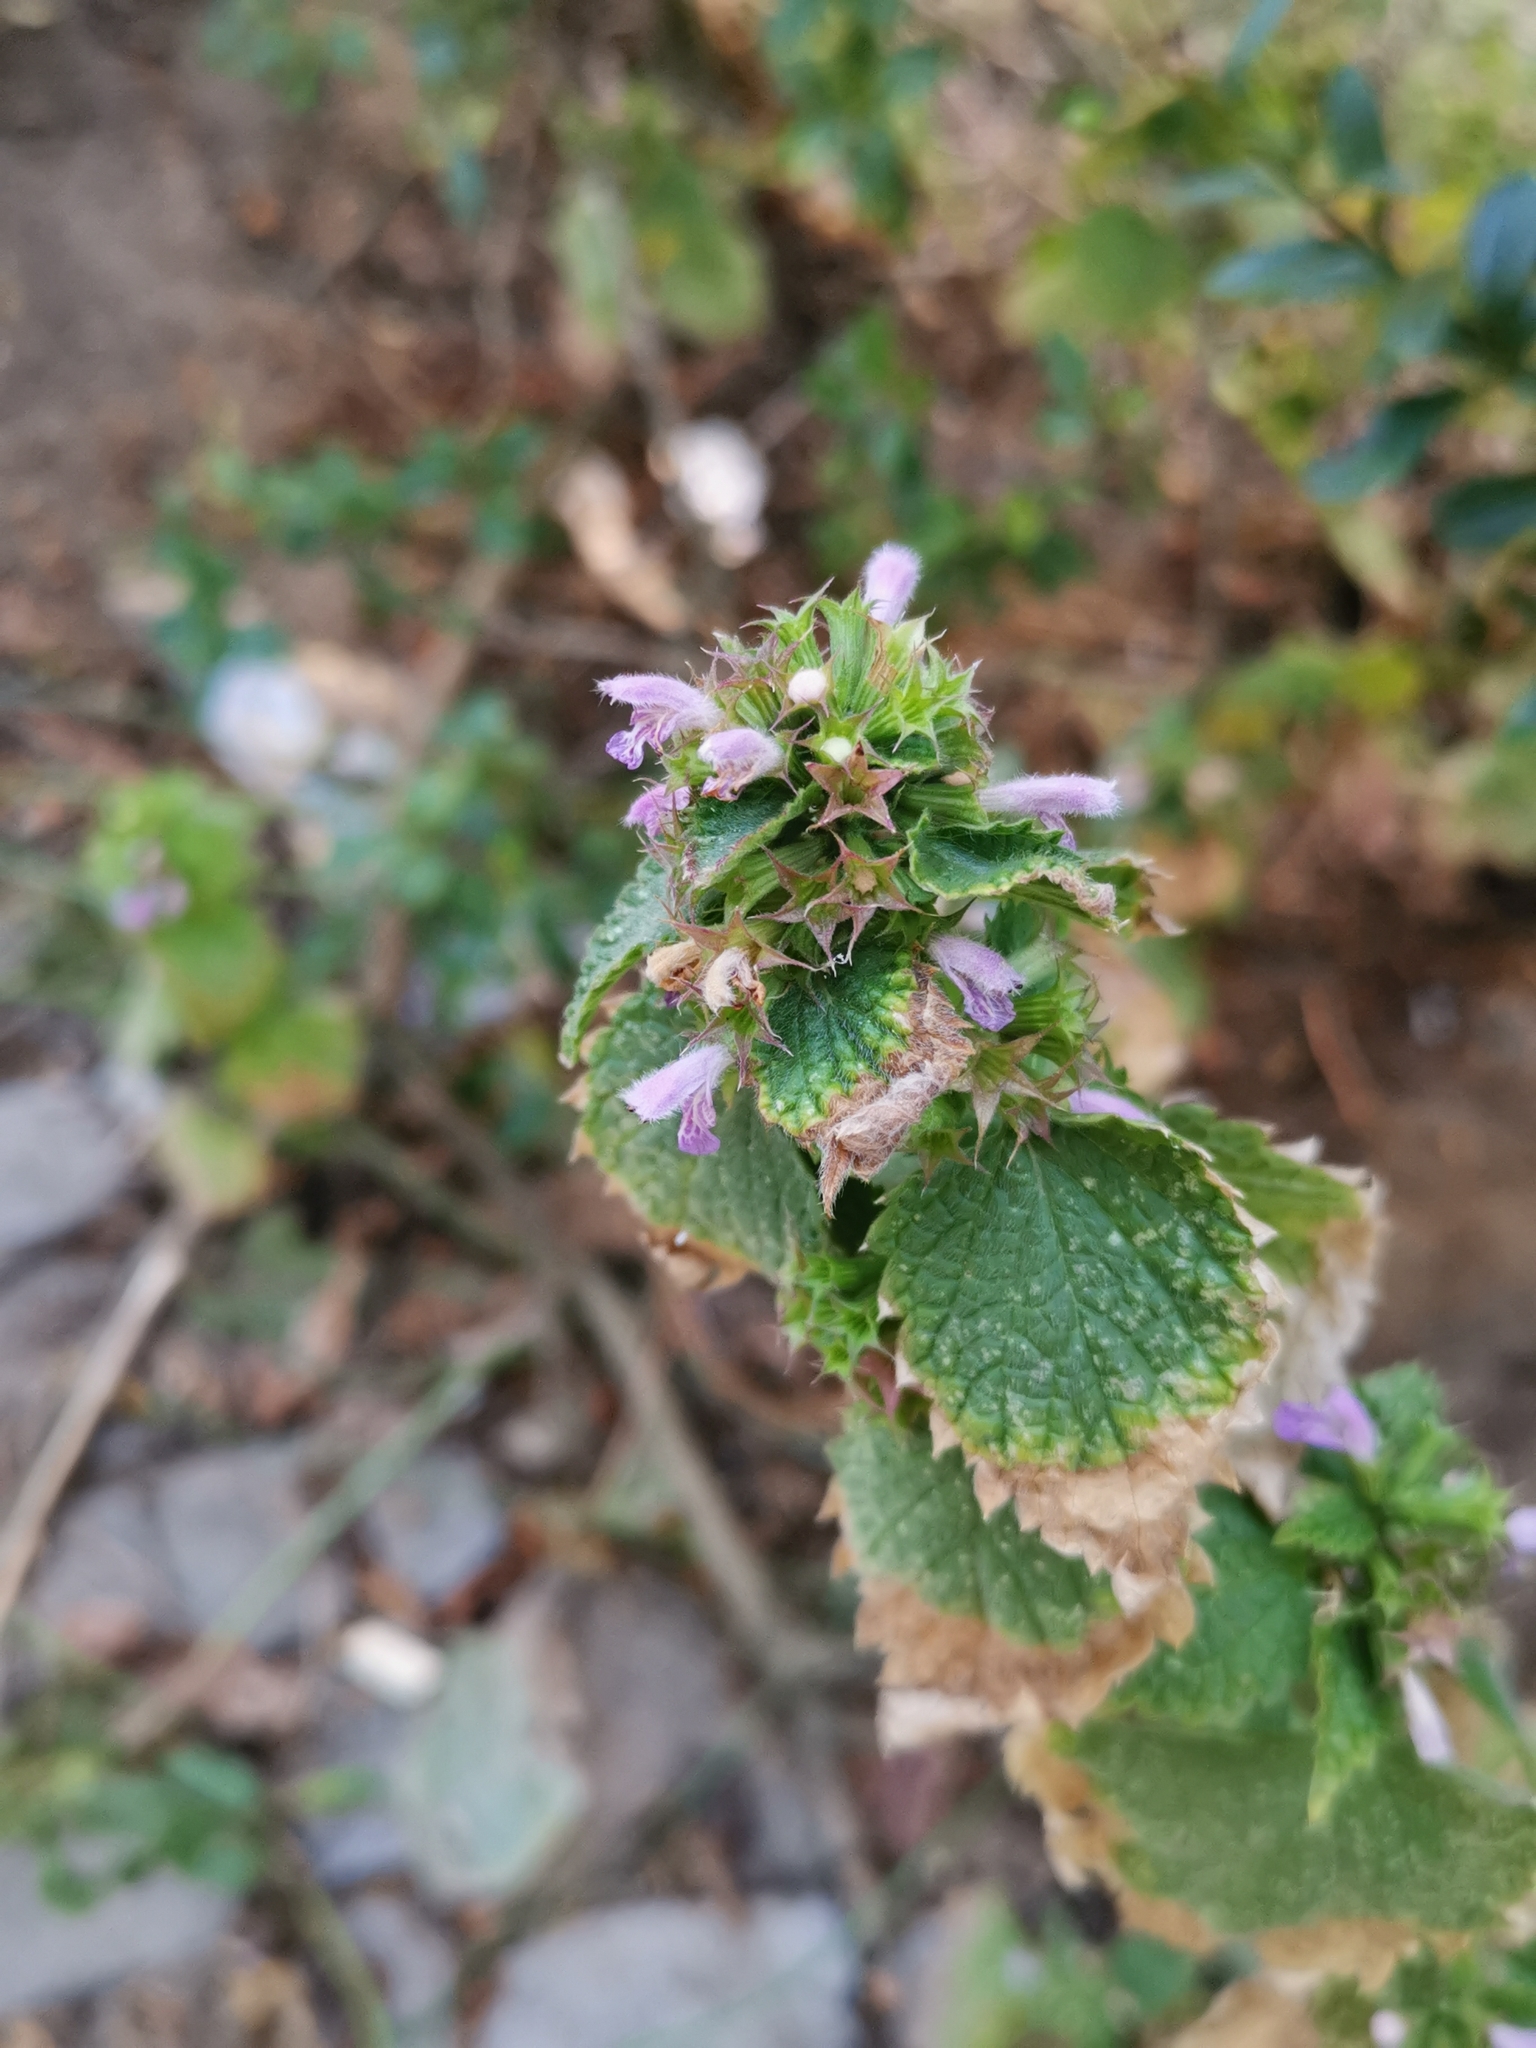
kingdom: Plantae
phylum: Tracheophyta
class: Magnoliopsida
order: Lamiales
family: Lamiaceae
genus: Ballota
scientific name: Ballota nigra
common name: Black horehound
